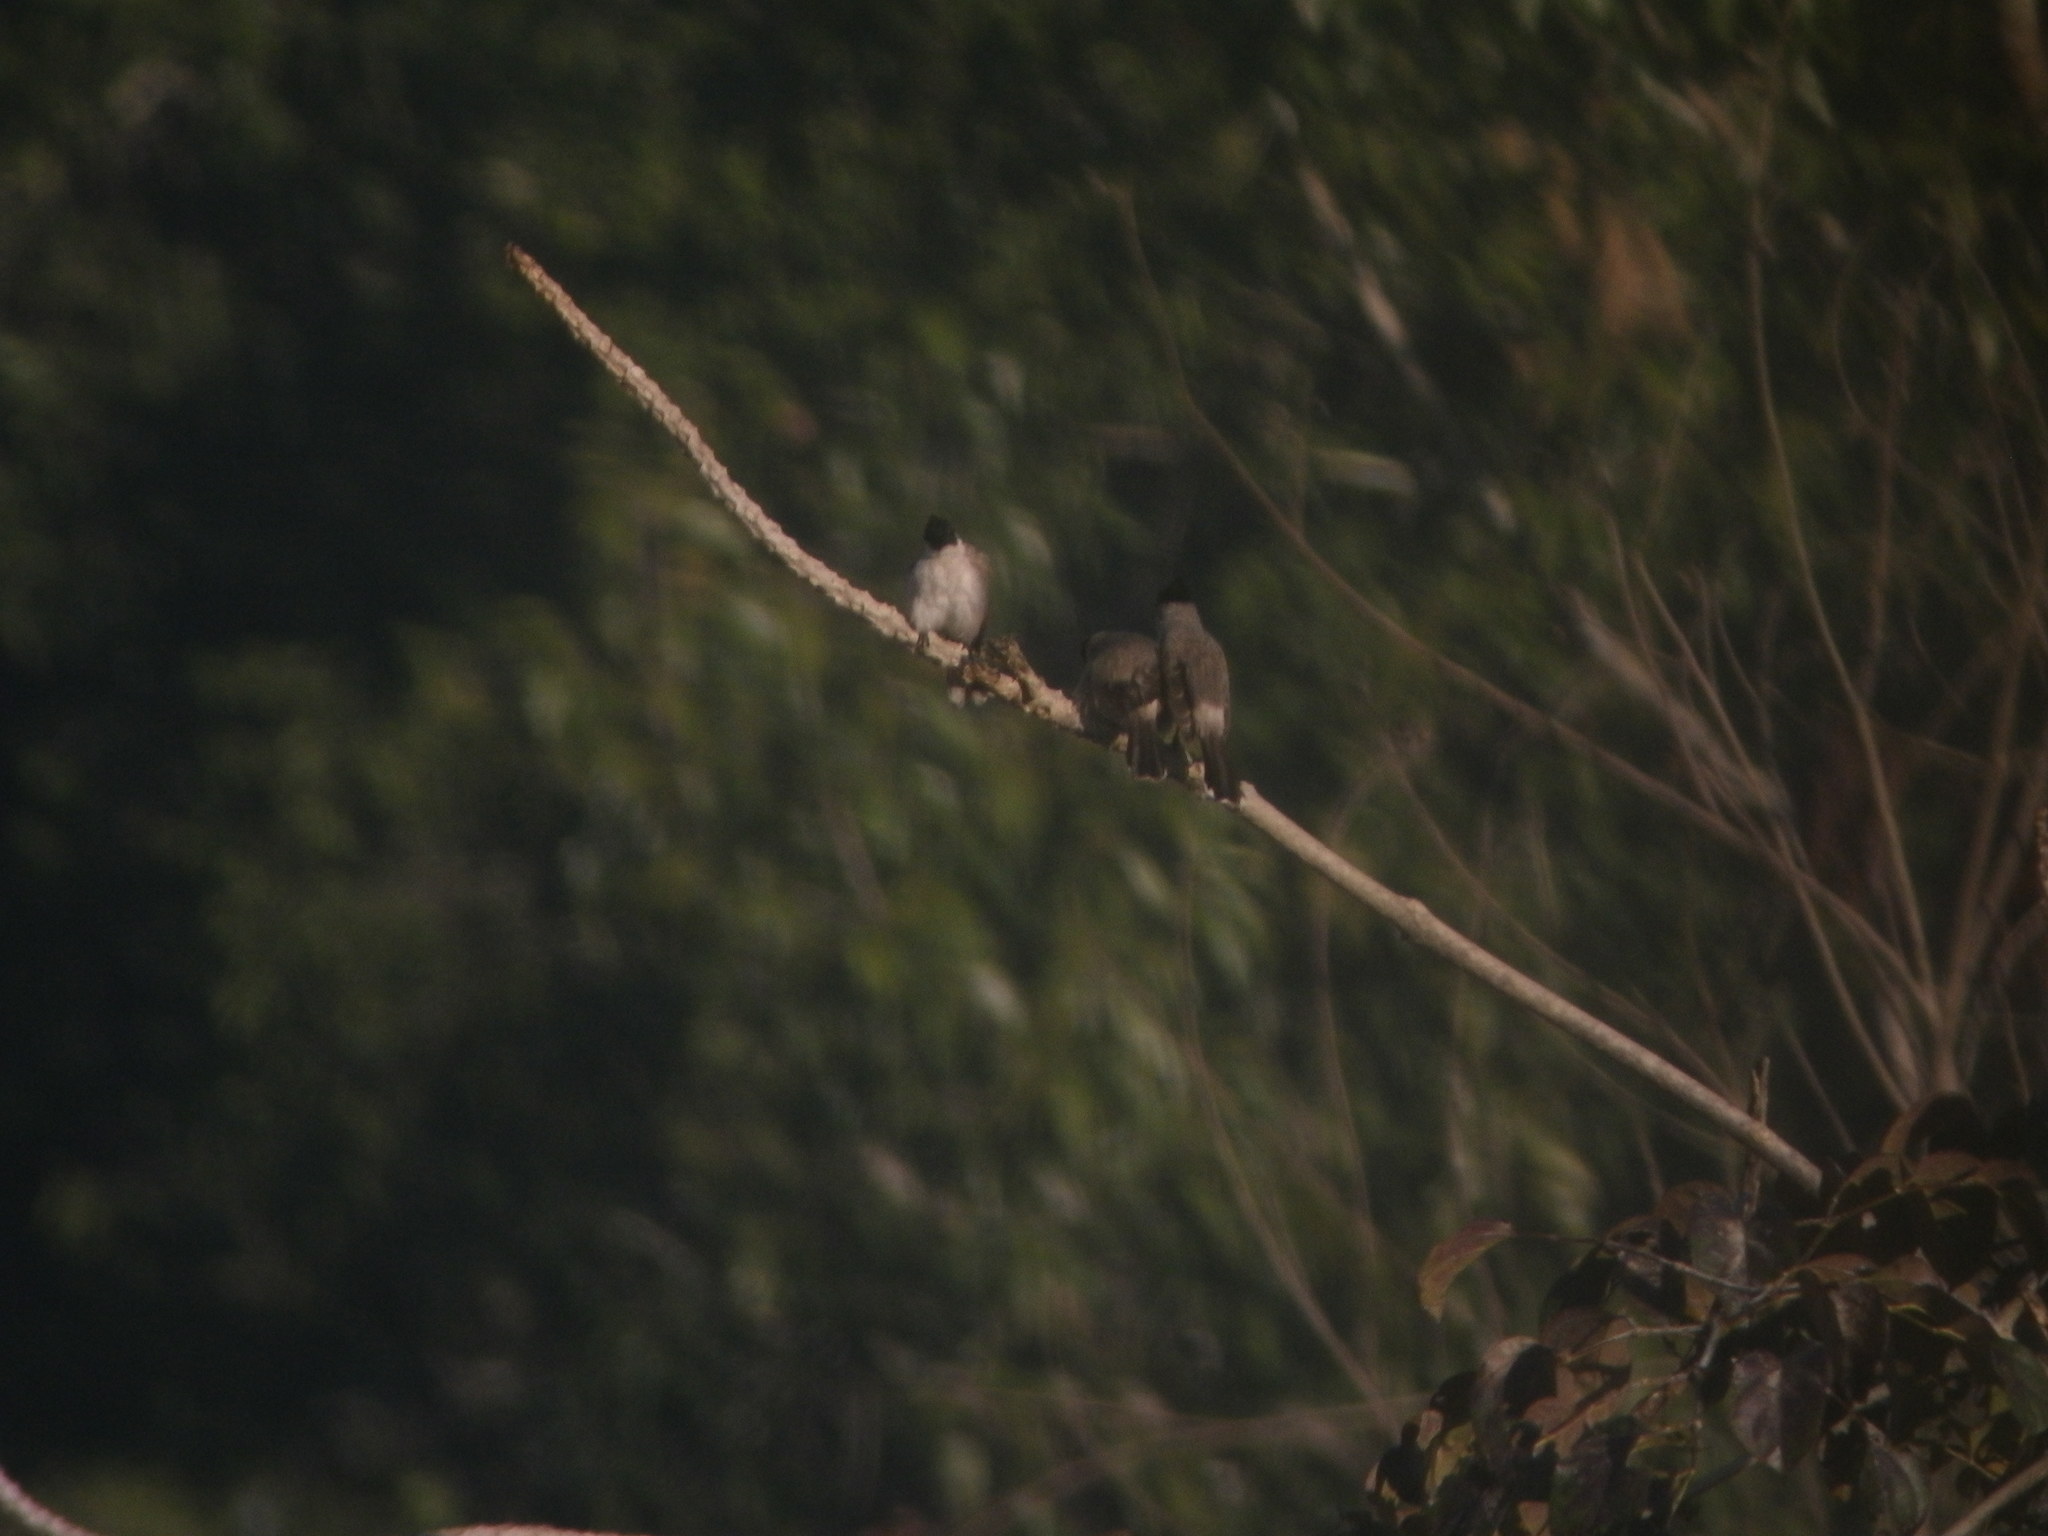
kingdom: Animalia
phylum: Chordata
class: Aves
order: Passeriformes
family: Pycnonotidae
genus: Pycnonotus
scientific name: Pycnonotus aurigaster
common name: Sooty-headed bulbul
